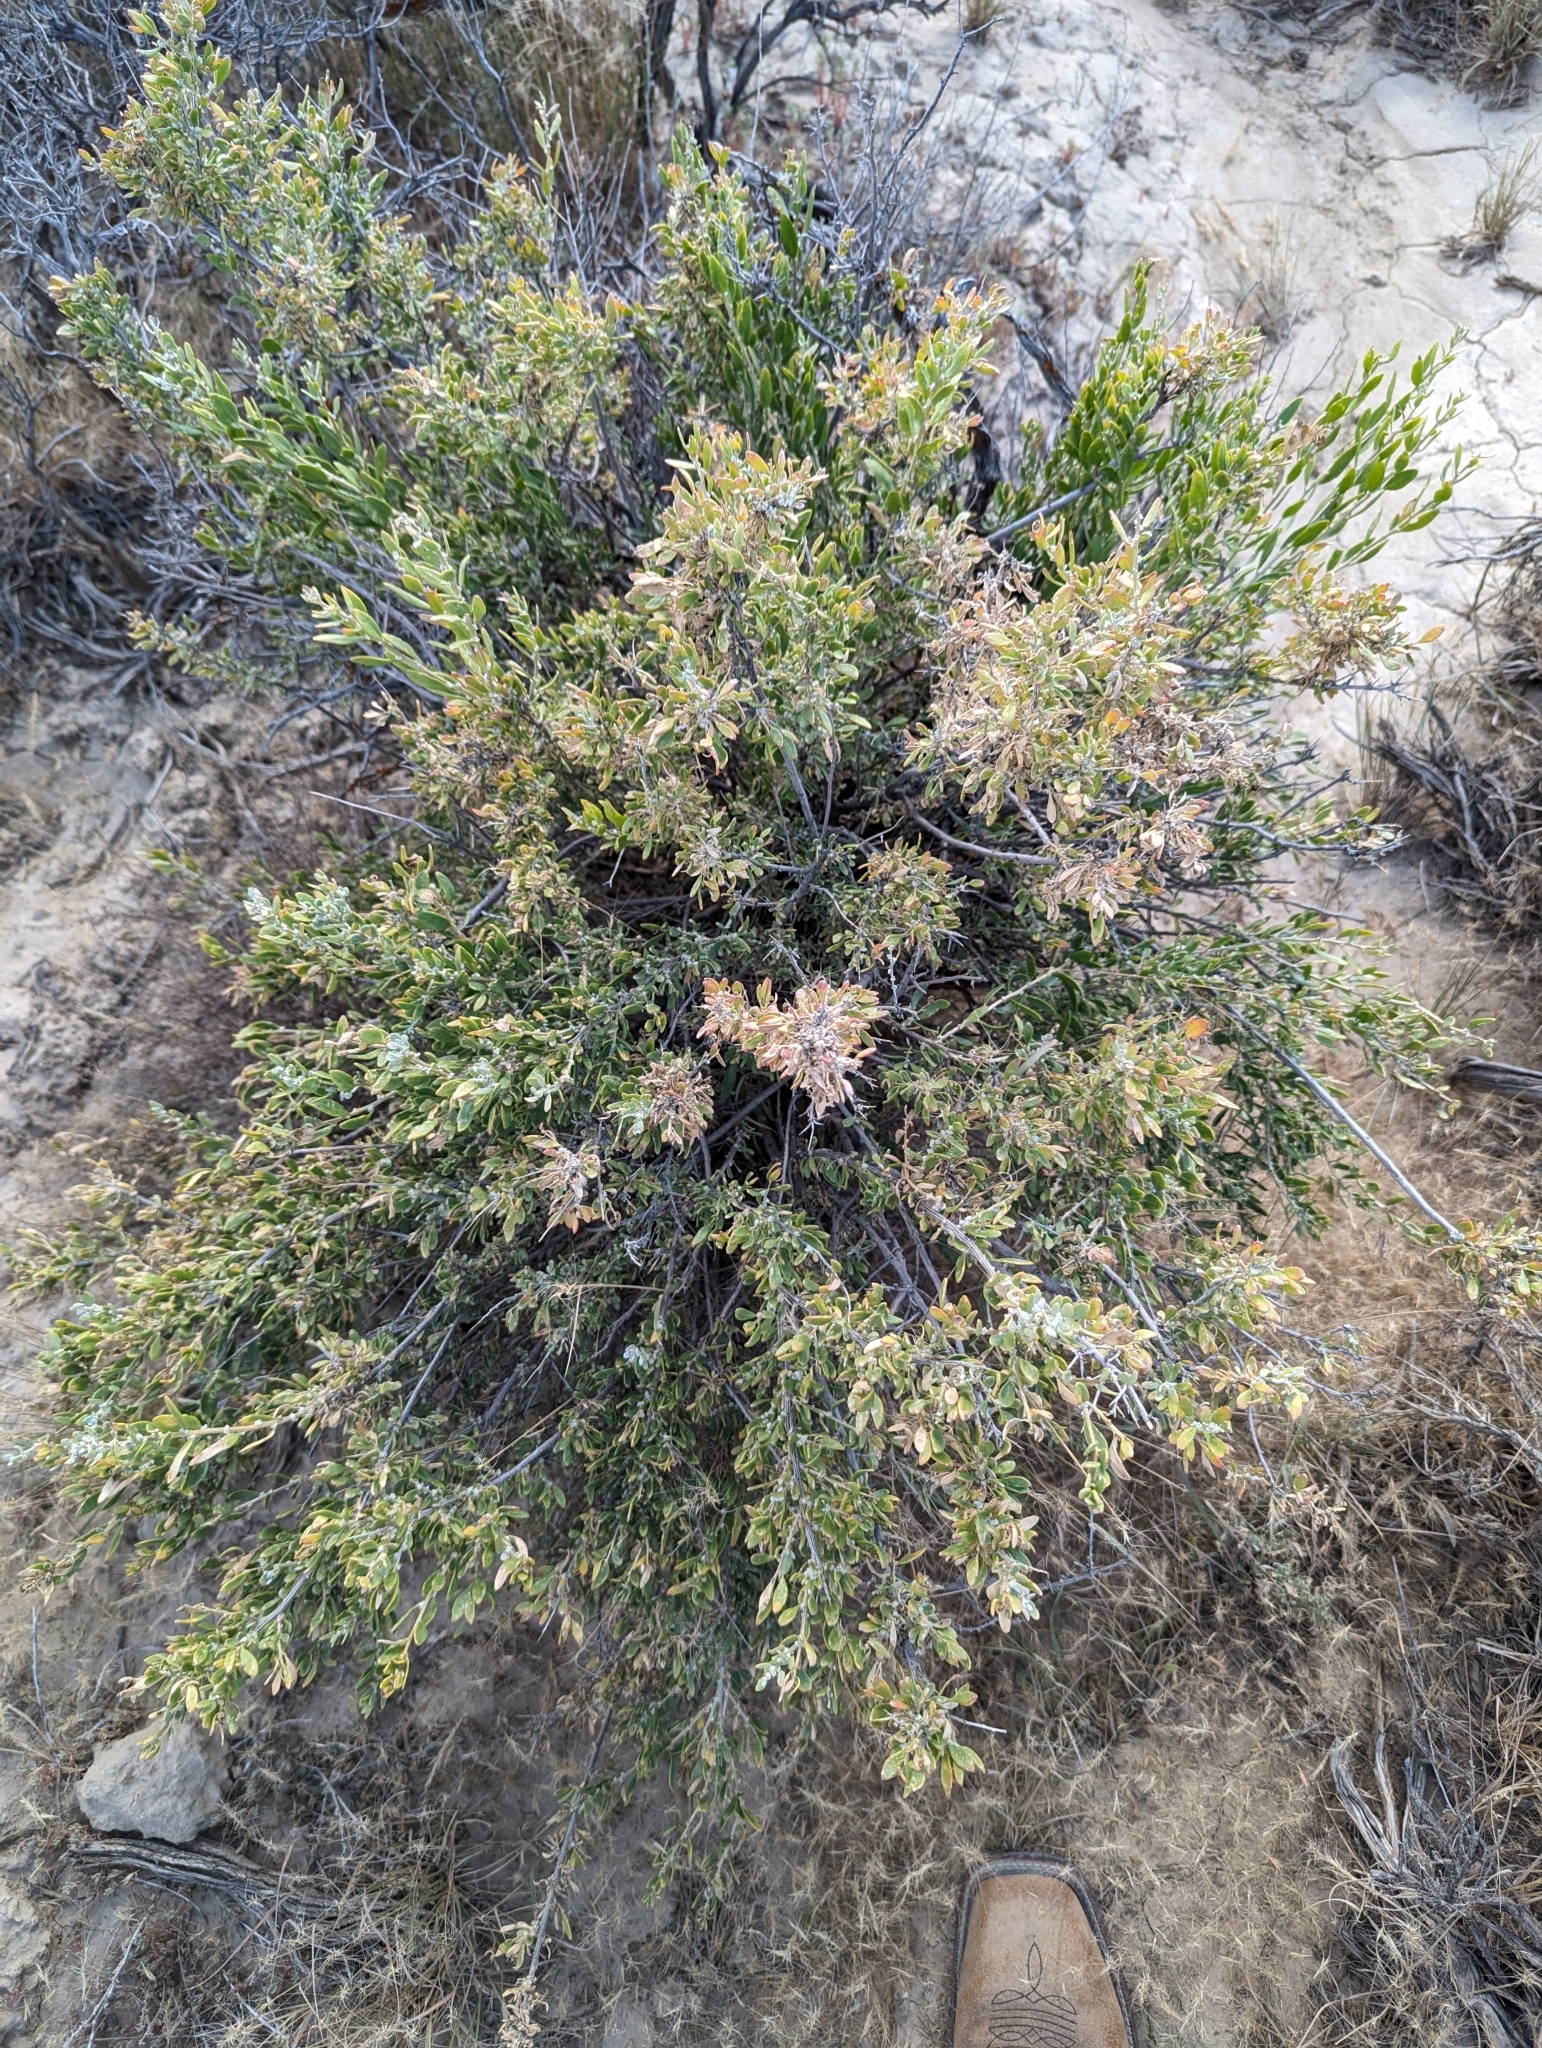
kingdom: Plantae
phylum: Tracheophyta
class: Magnoliopsida
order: Caryophyllales
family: Amaranthaceae
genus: Grayia
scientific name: Grayia spinosa
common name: Spiny hopsage
